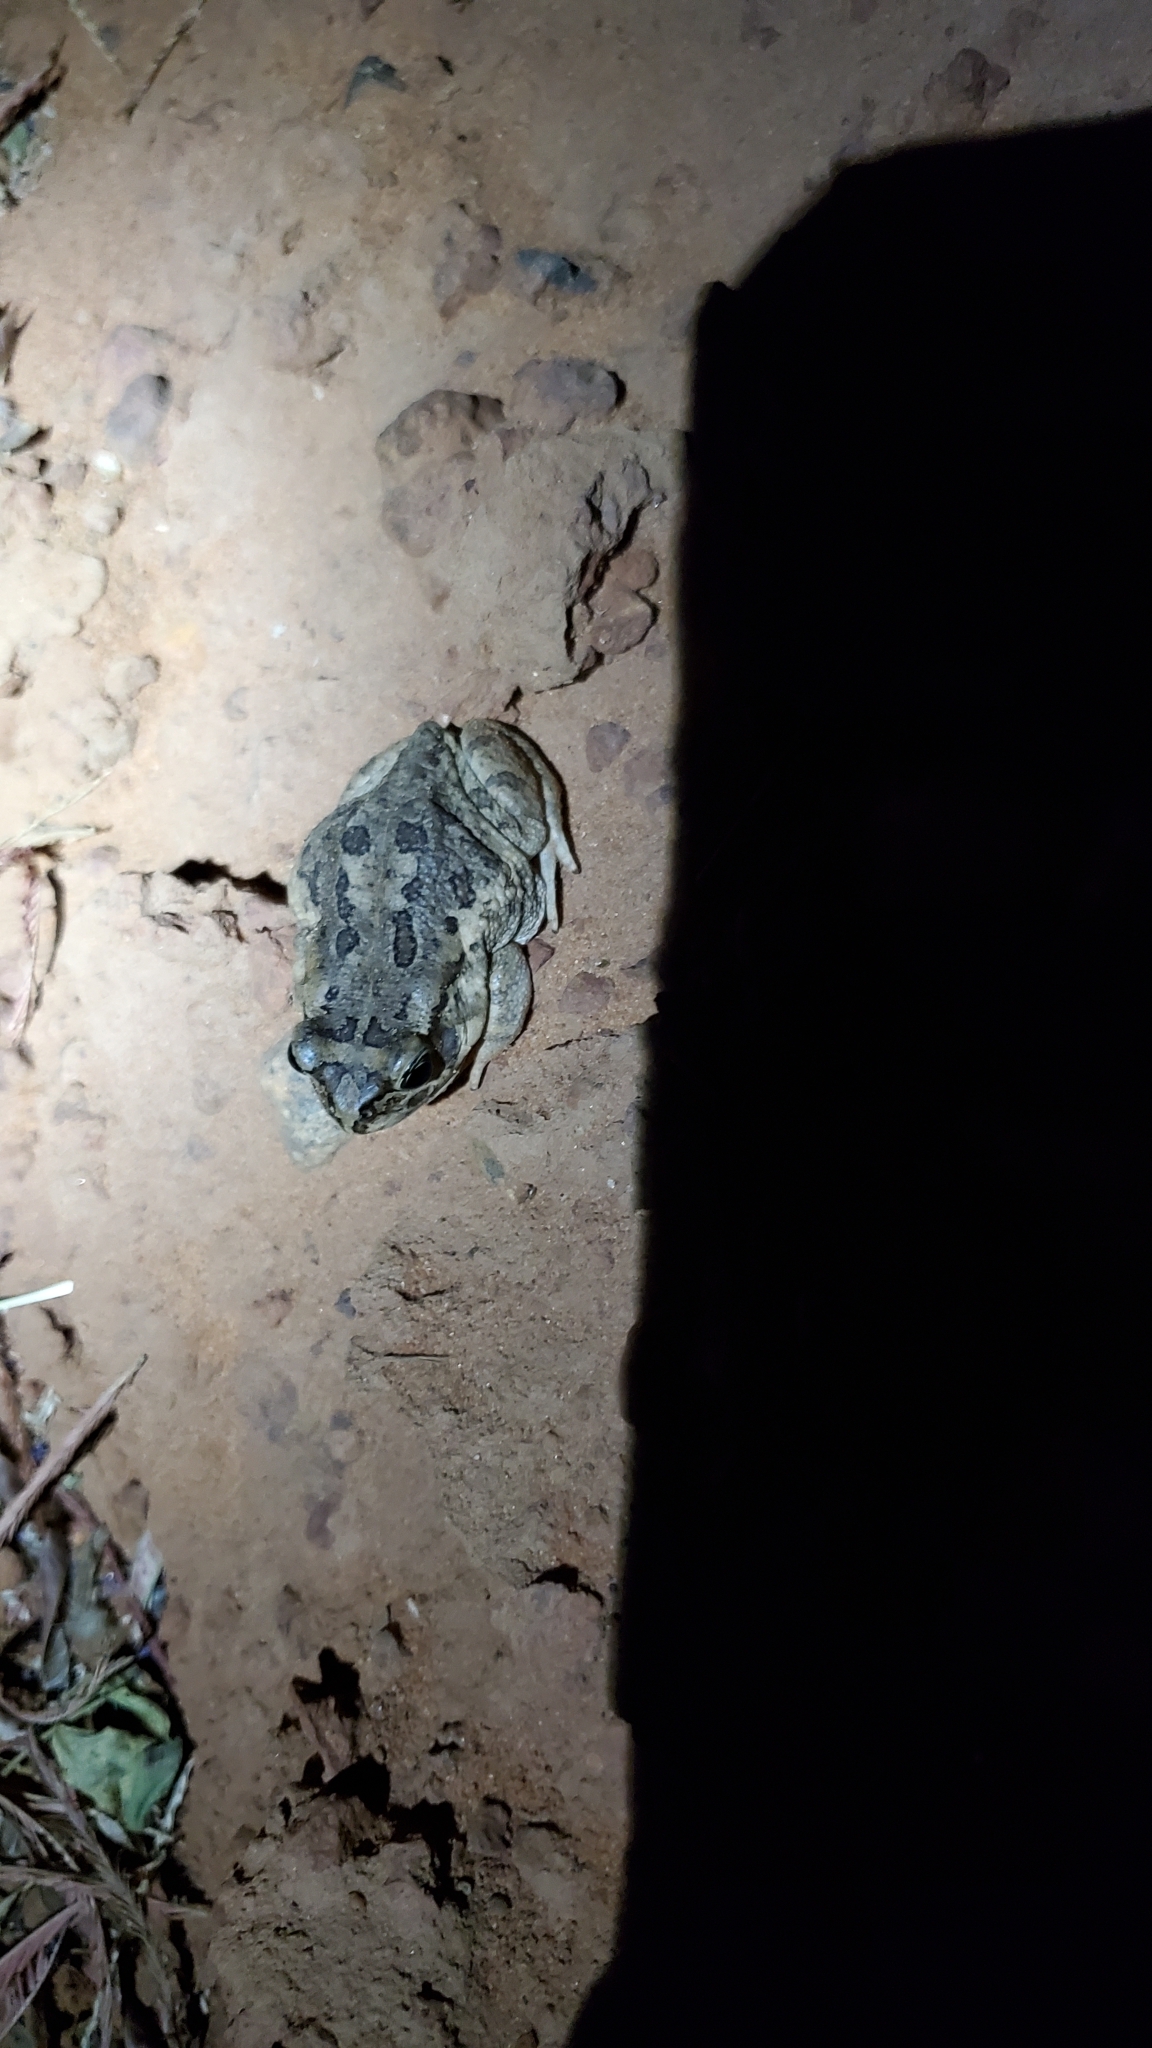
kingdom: Animalia
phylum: Chordata
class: Amphibia
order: Anura
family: Bufonidae
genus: Sclerophrys
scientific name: Sclerophrys xeros
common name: Subdesert toad
